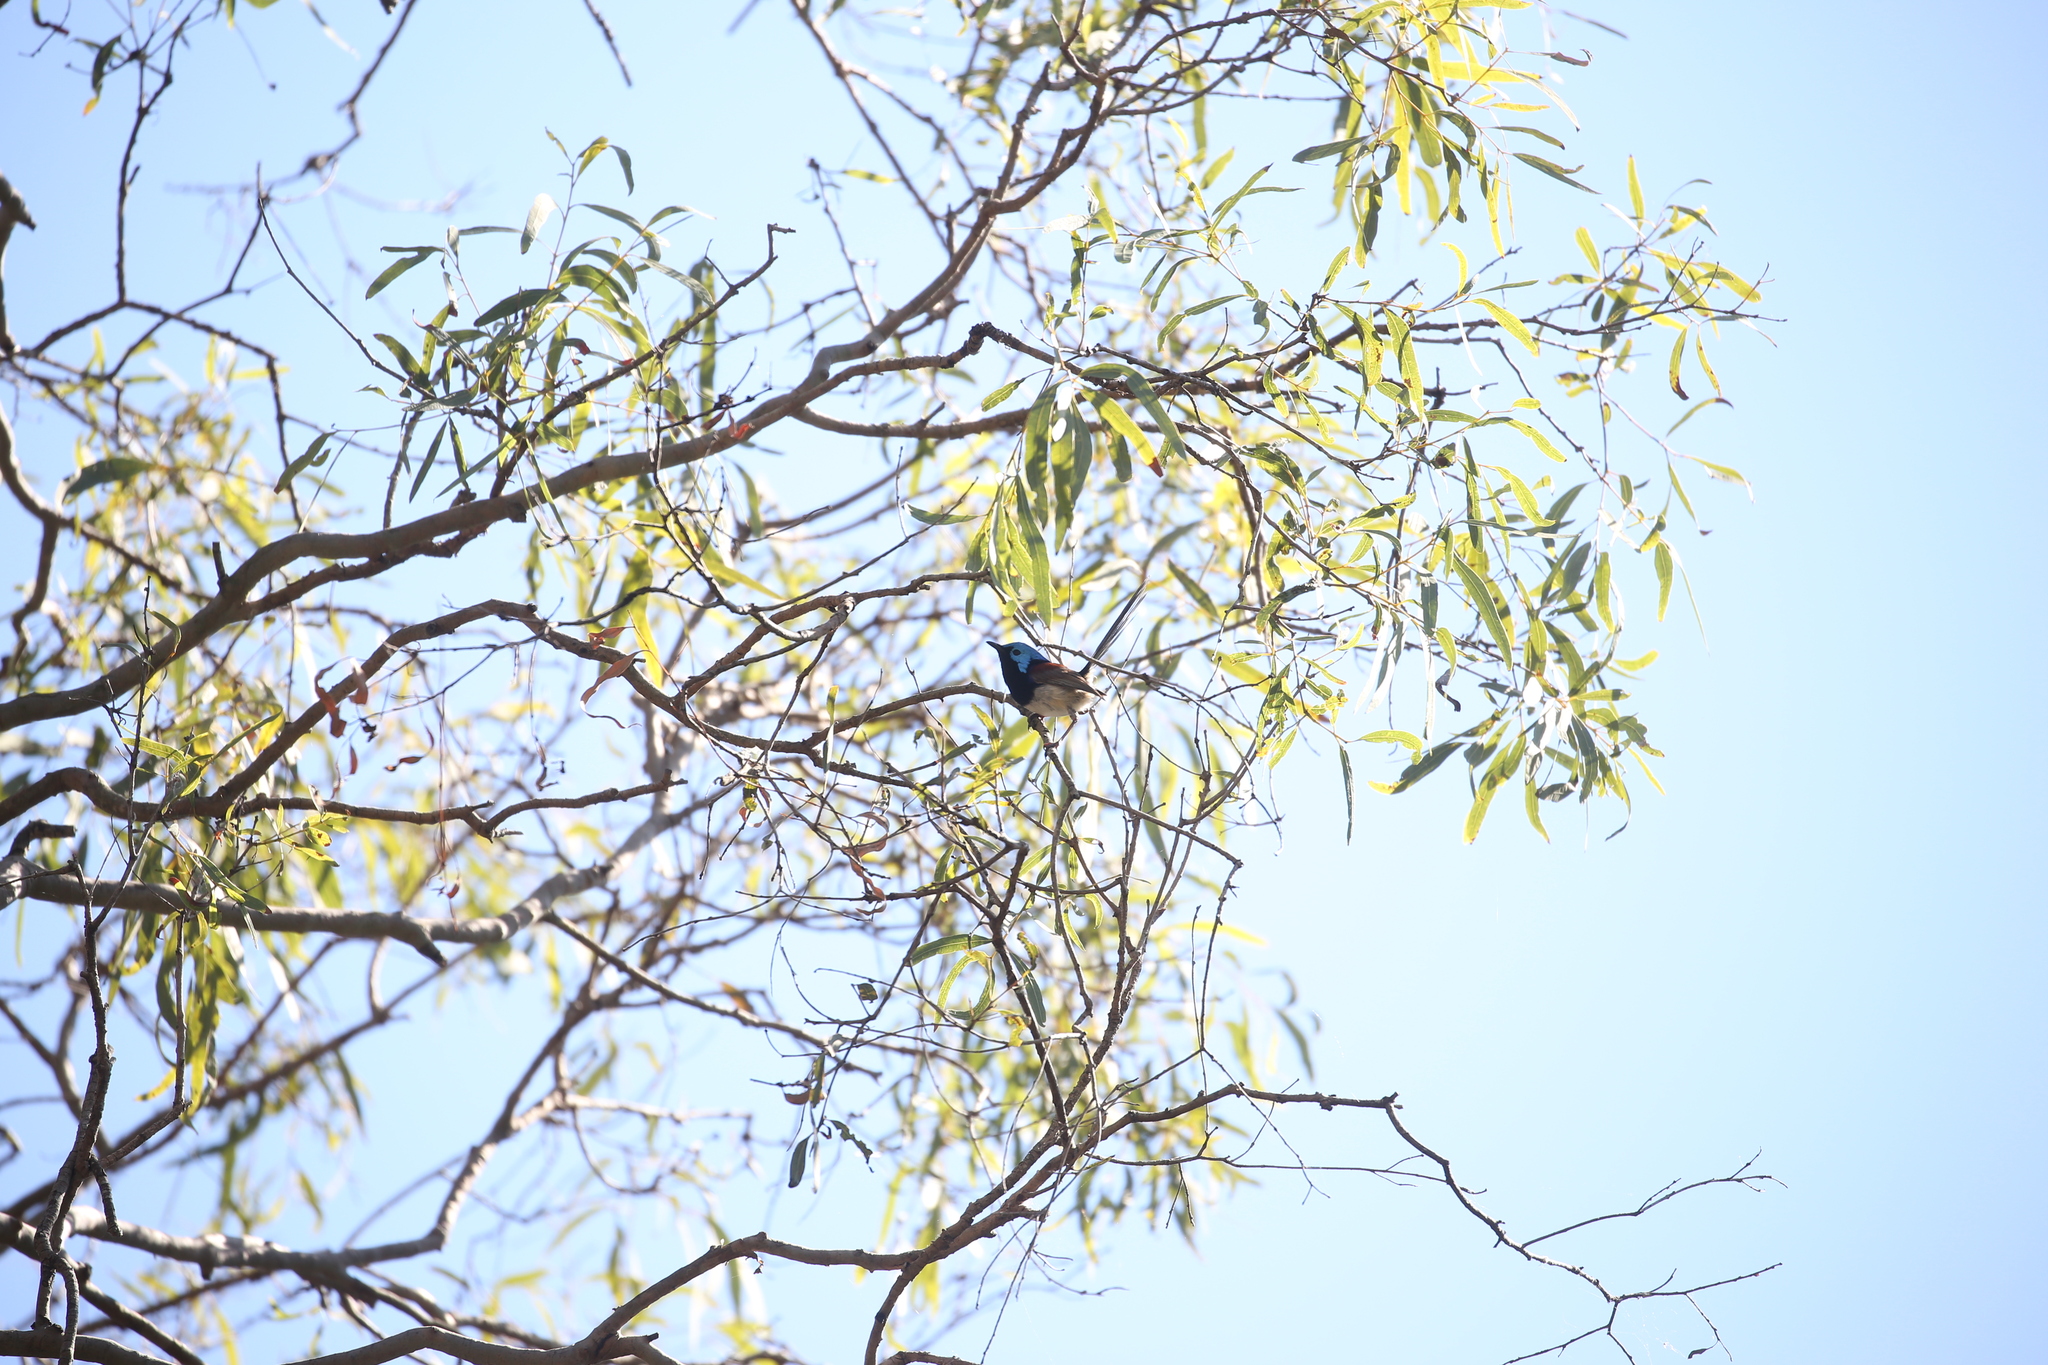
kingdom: Animalia
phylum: Chordata
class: Aves
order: Passeriformes
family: Maluridae
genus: Malurus
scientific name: Malurus lamberti
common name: Variegated fairywren
